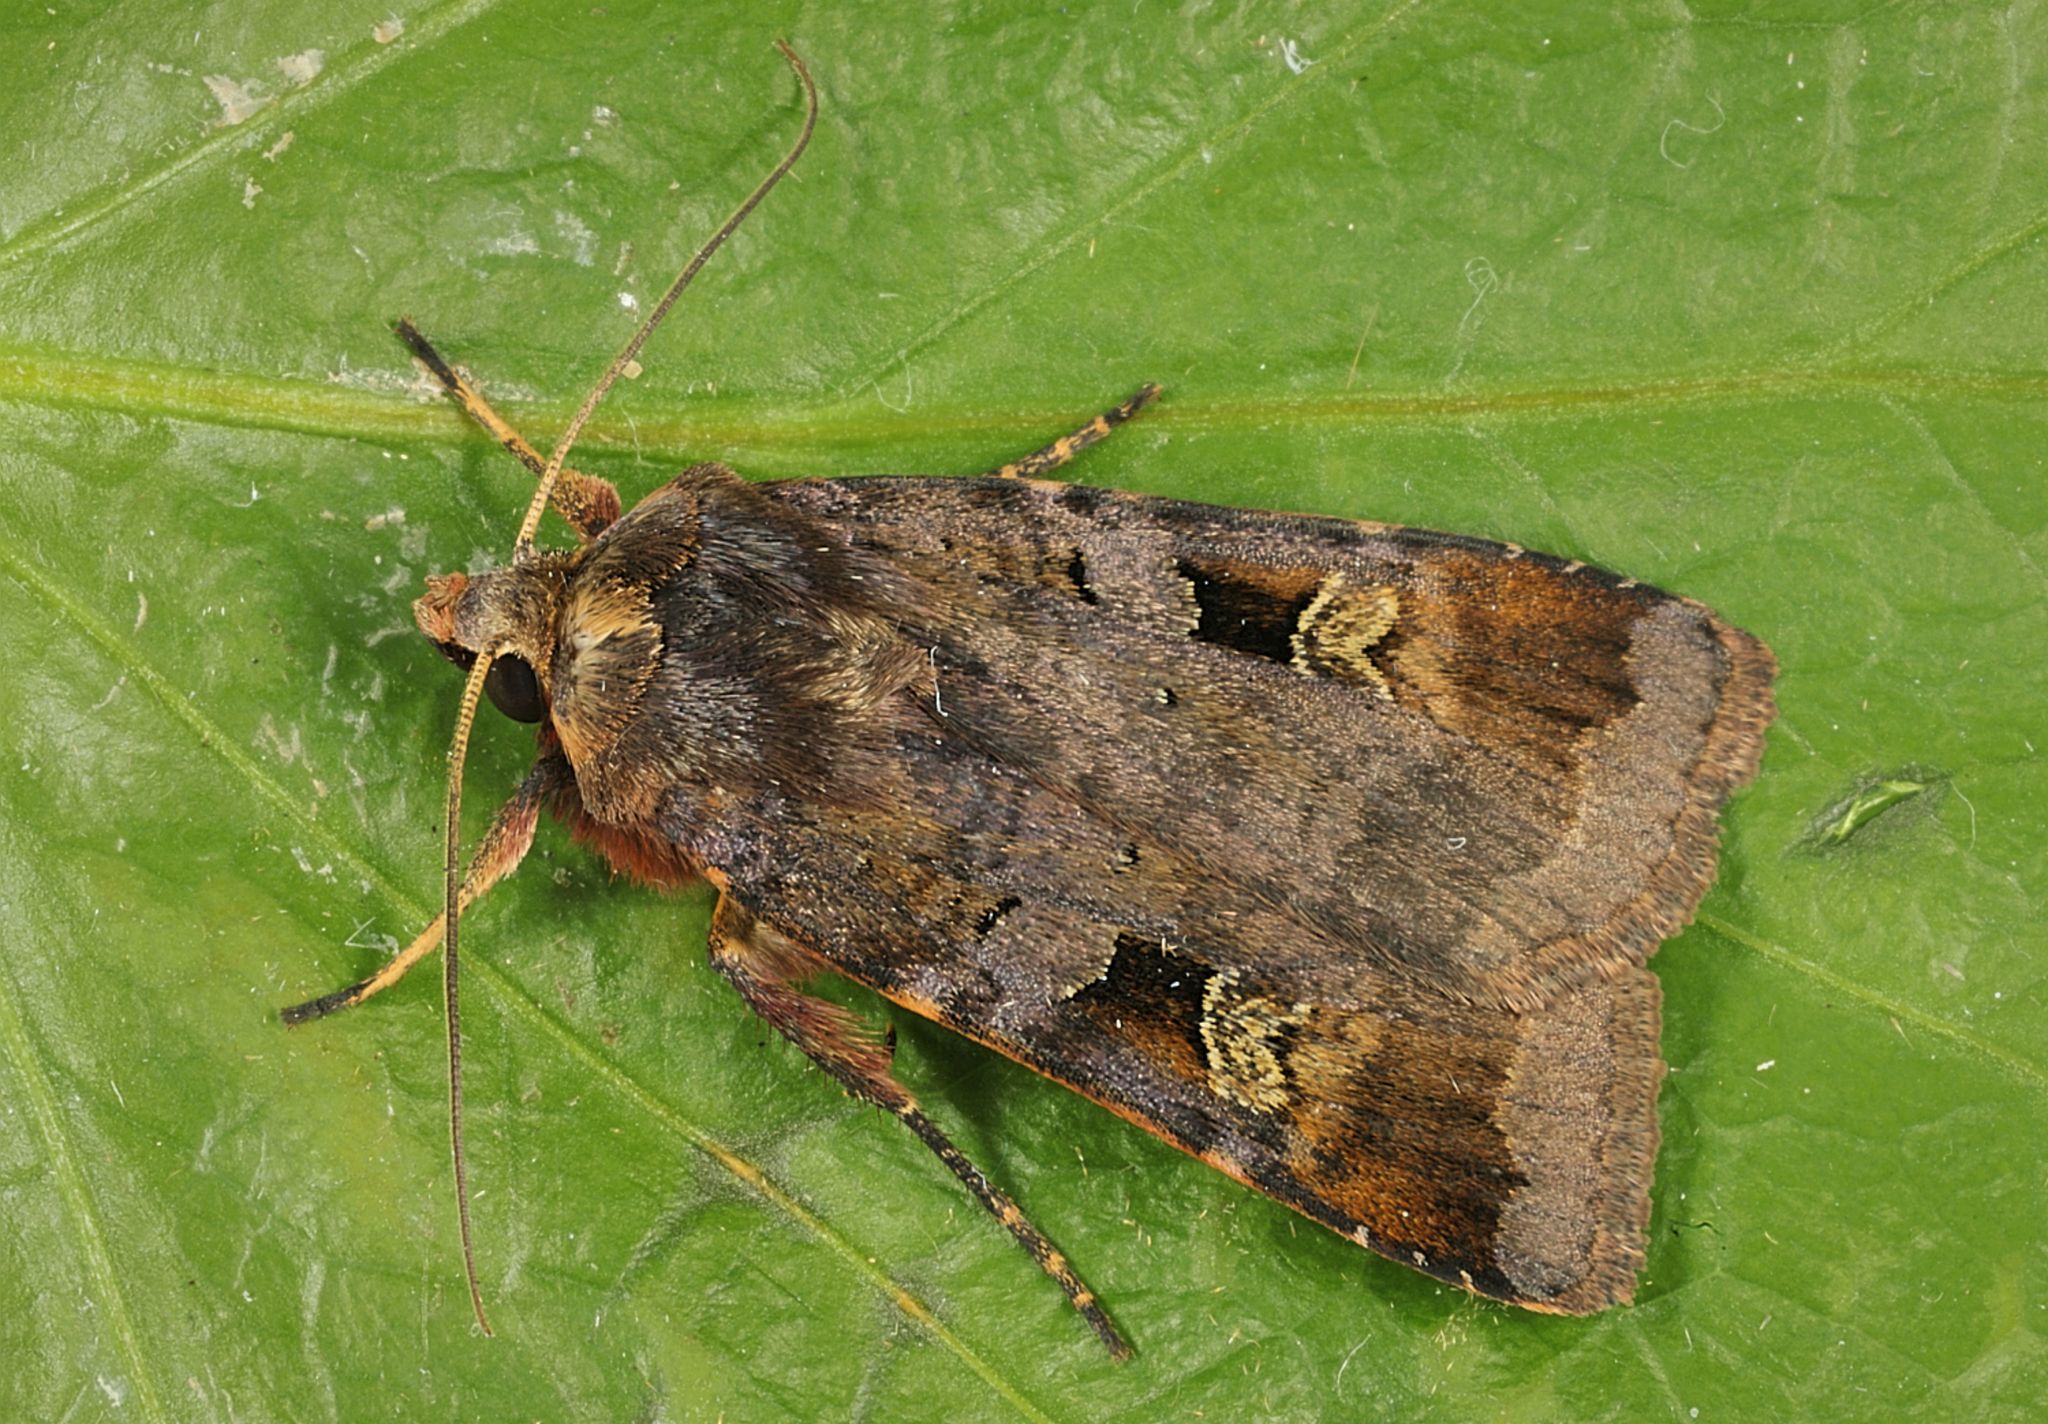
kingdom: Animalia
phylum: Arthropoda
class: Insecta
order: Lepidoptera
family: Noctuidae
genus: Diarsia
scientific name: Diarsia brunnea
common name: Purple clay
